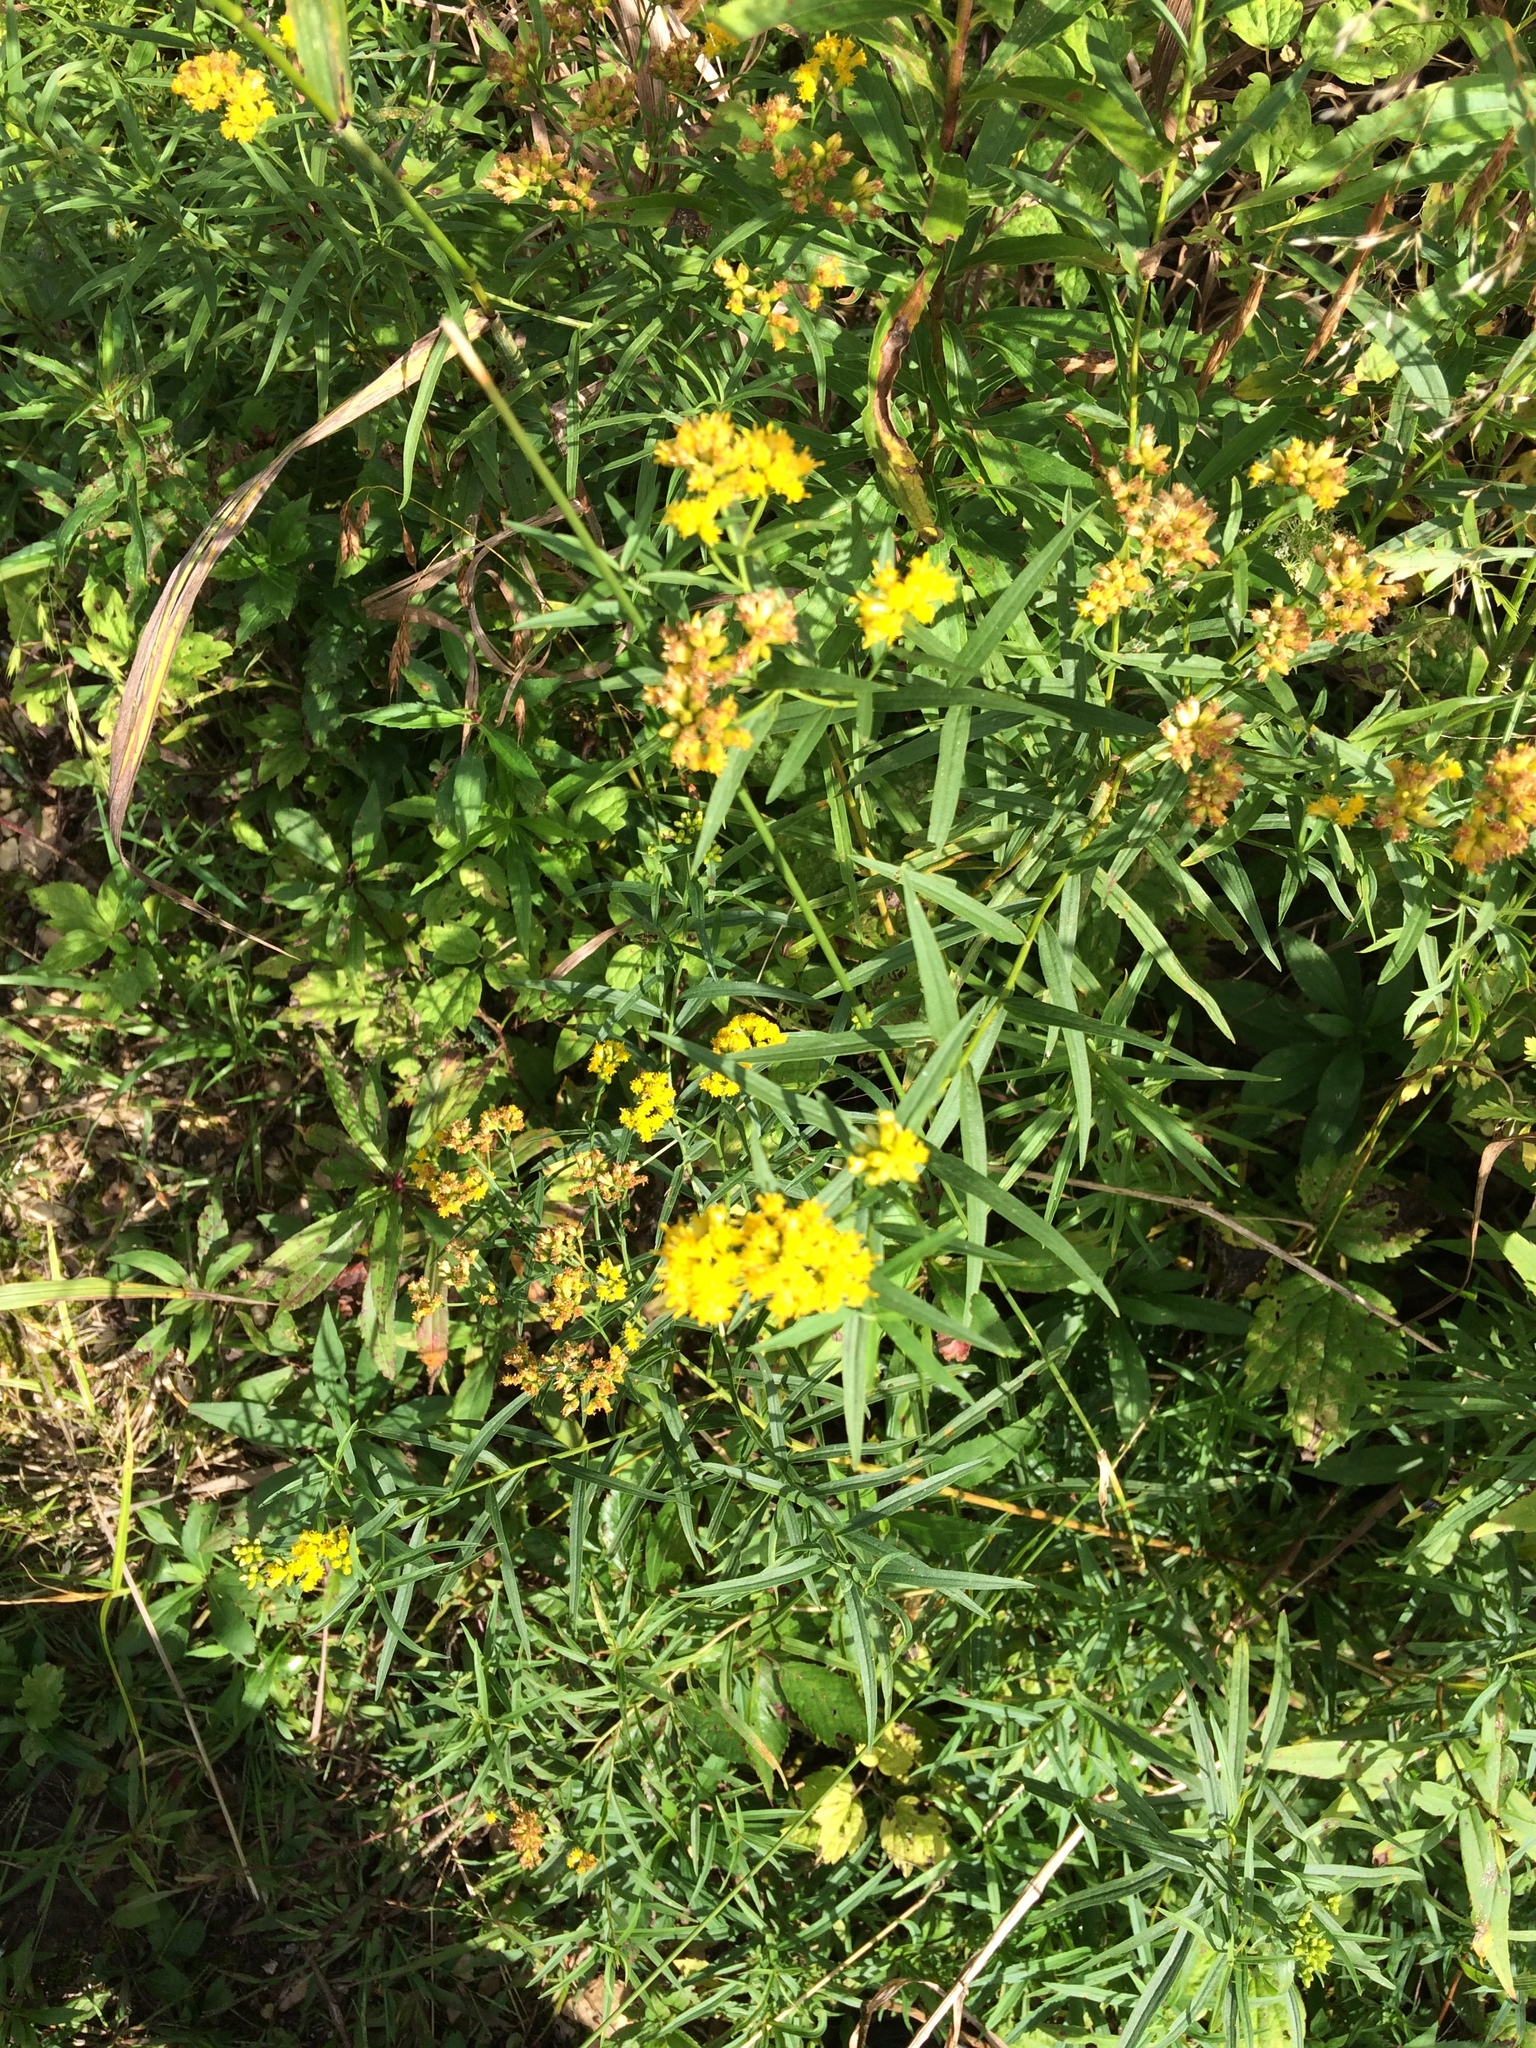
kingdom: Plantae
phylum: Tracheophyta
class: Magnoliopsida
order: Asterales
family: Asteraceae
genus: Euthamia
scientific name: Euthamia graminifolia
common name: Common goldentop
